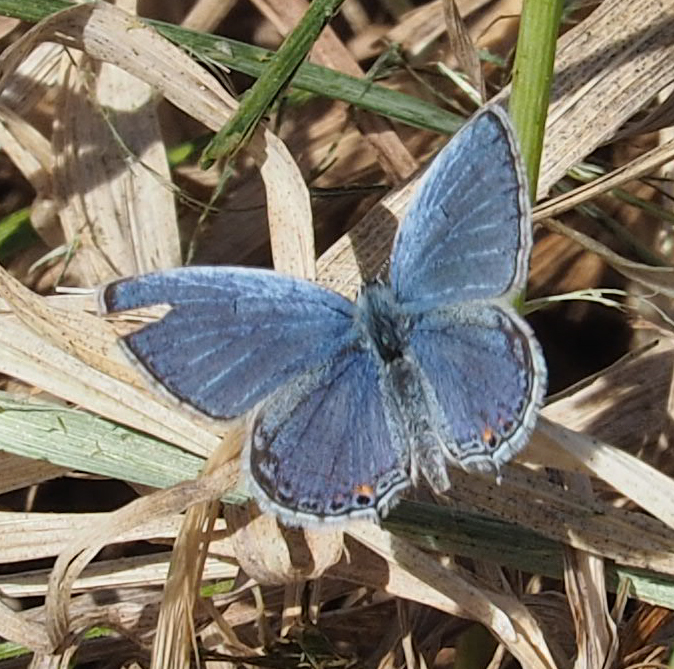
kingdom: Animalia
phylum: Arthropoda
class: Insecta
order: Lepidoptera
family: Lycaenidae
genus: Elkalyce
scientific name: Elkalyce comyntas
